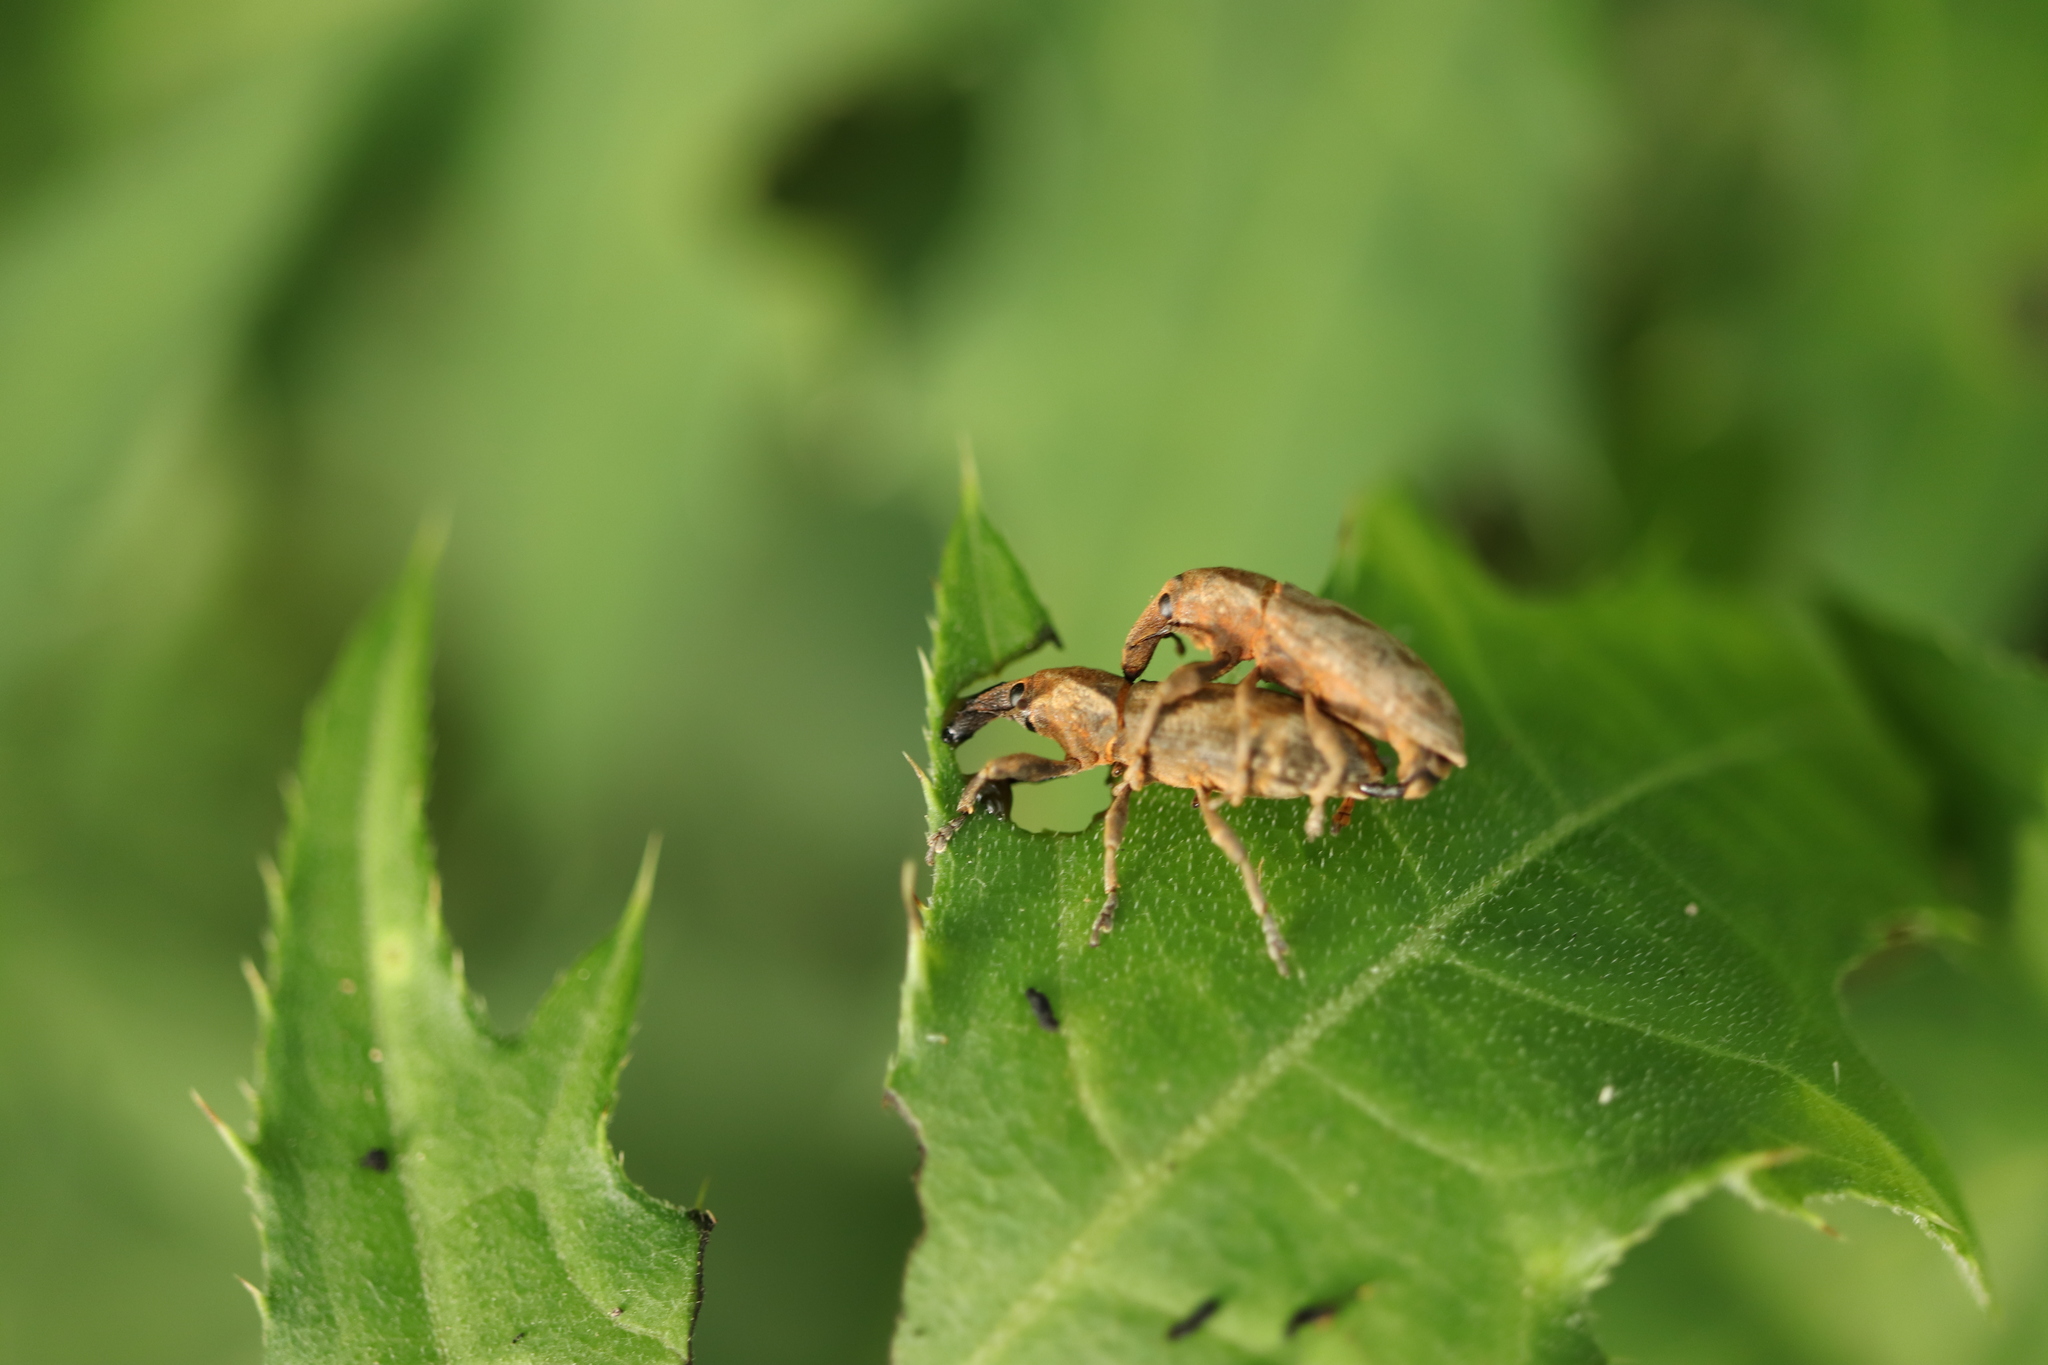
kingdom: Animalia
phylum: Arthropoda
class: Insecta
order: Coleoptera
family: Curculionidae
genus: Lixus
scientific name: Lixus
